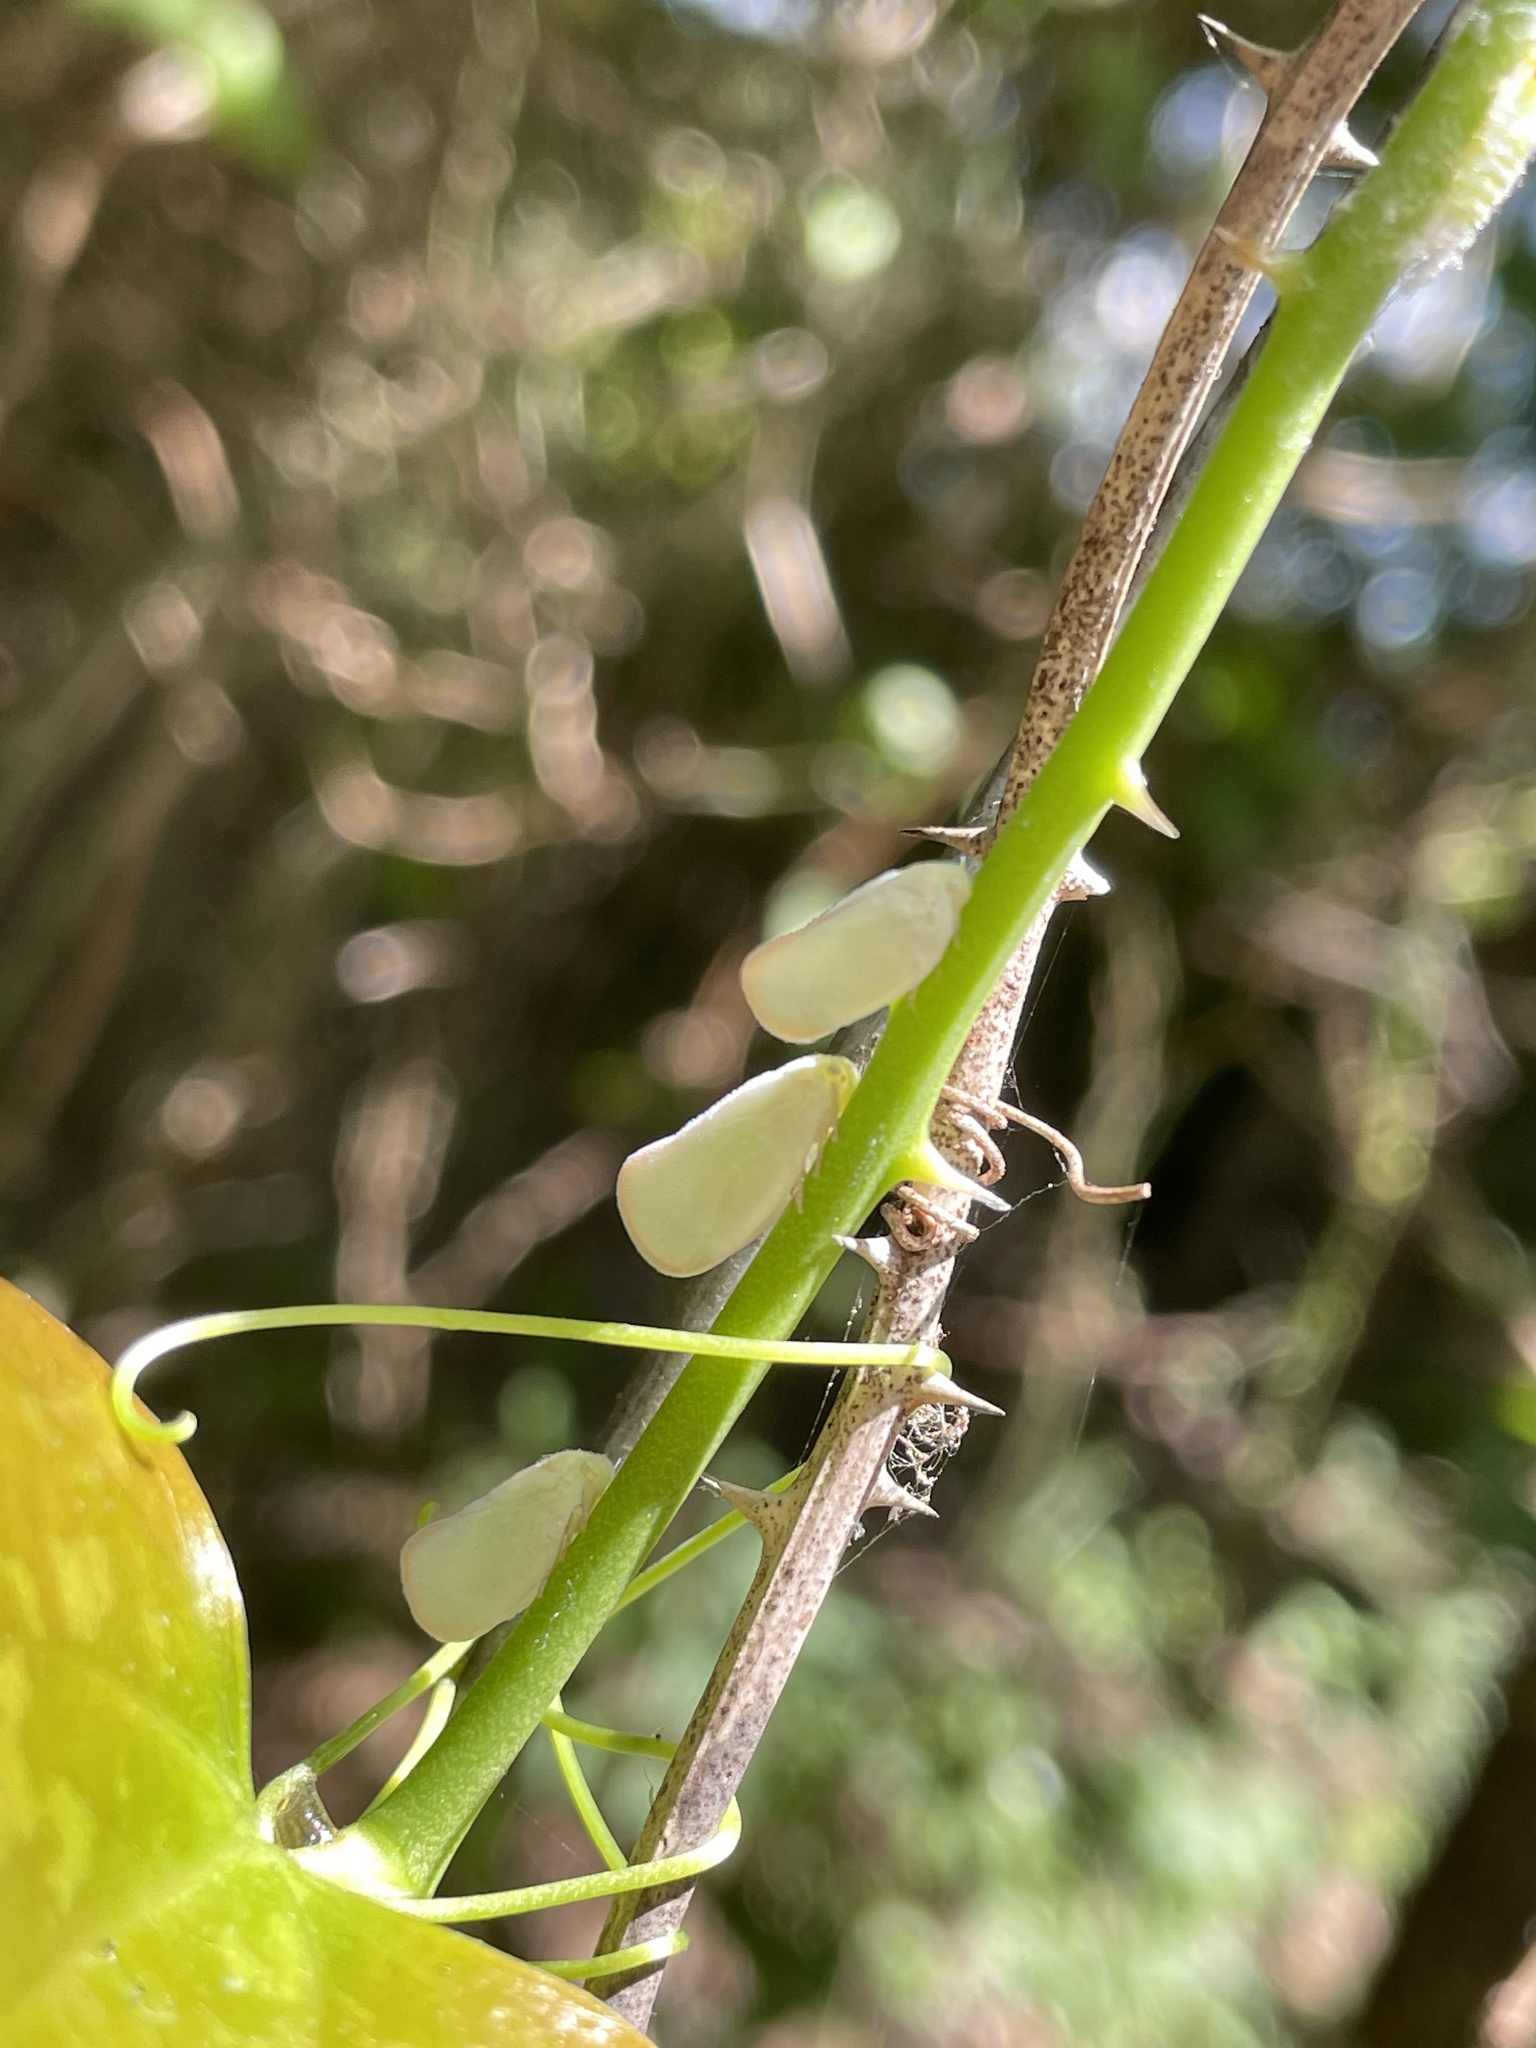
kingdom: Animalia
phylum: Arthropoda
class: Insecta
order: Hemiptera
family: Flatidae
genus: Ormenoides
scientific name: Ormenoides venusta
